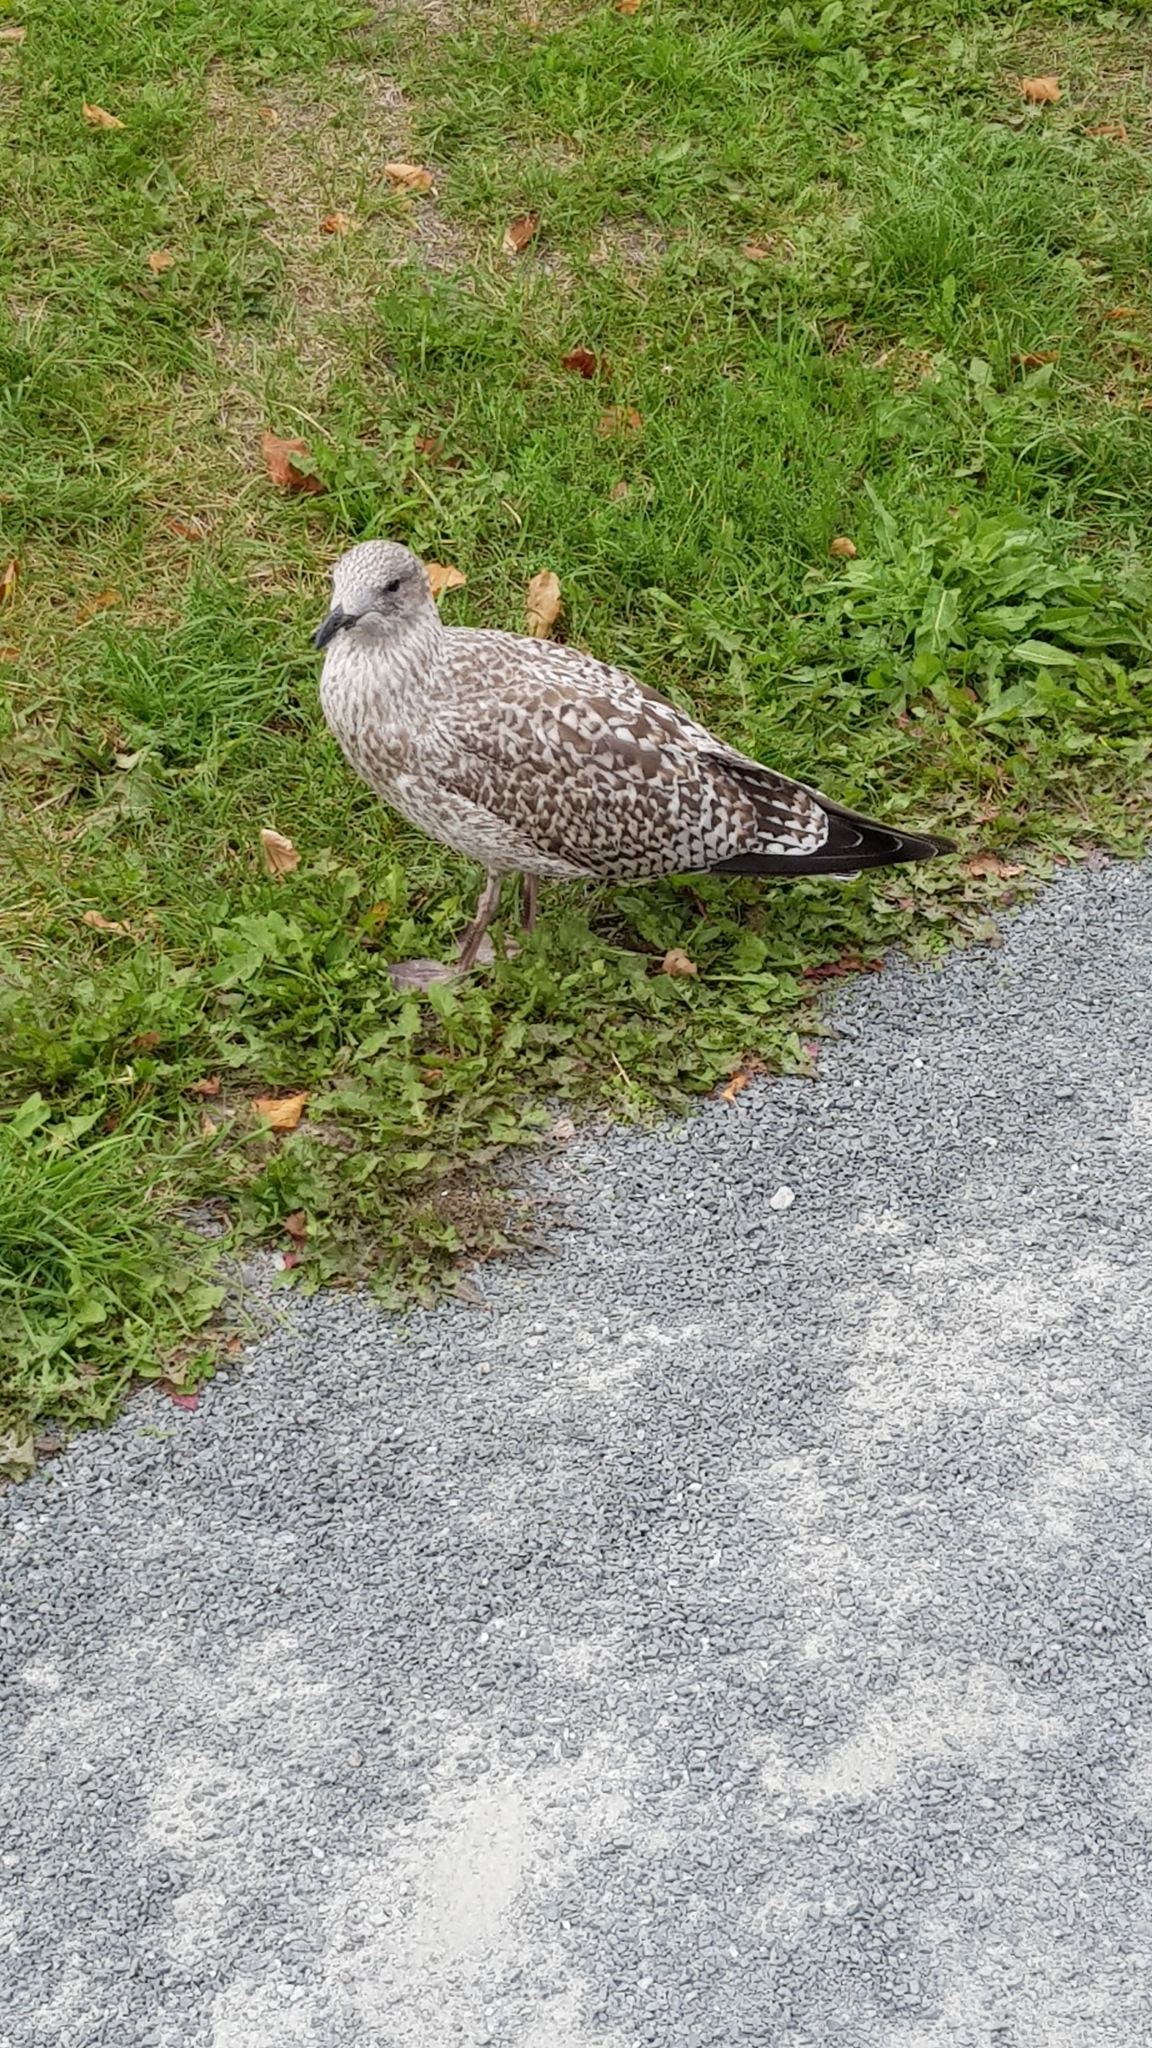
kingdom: Animalia
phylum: Chordata
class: Aves
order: Charadriiformes
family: Laridae
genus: Larus
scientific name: Larus
